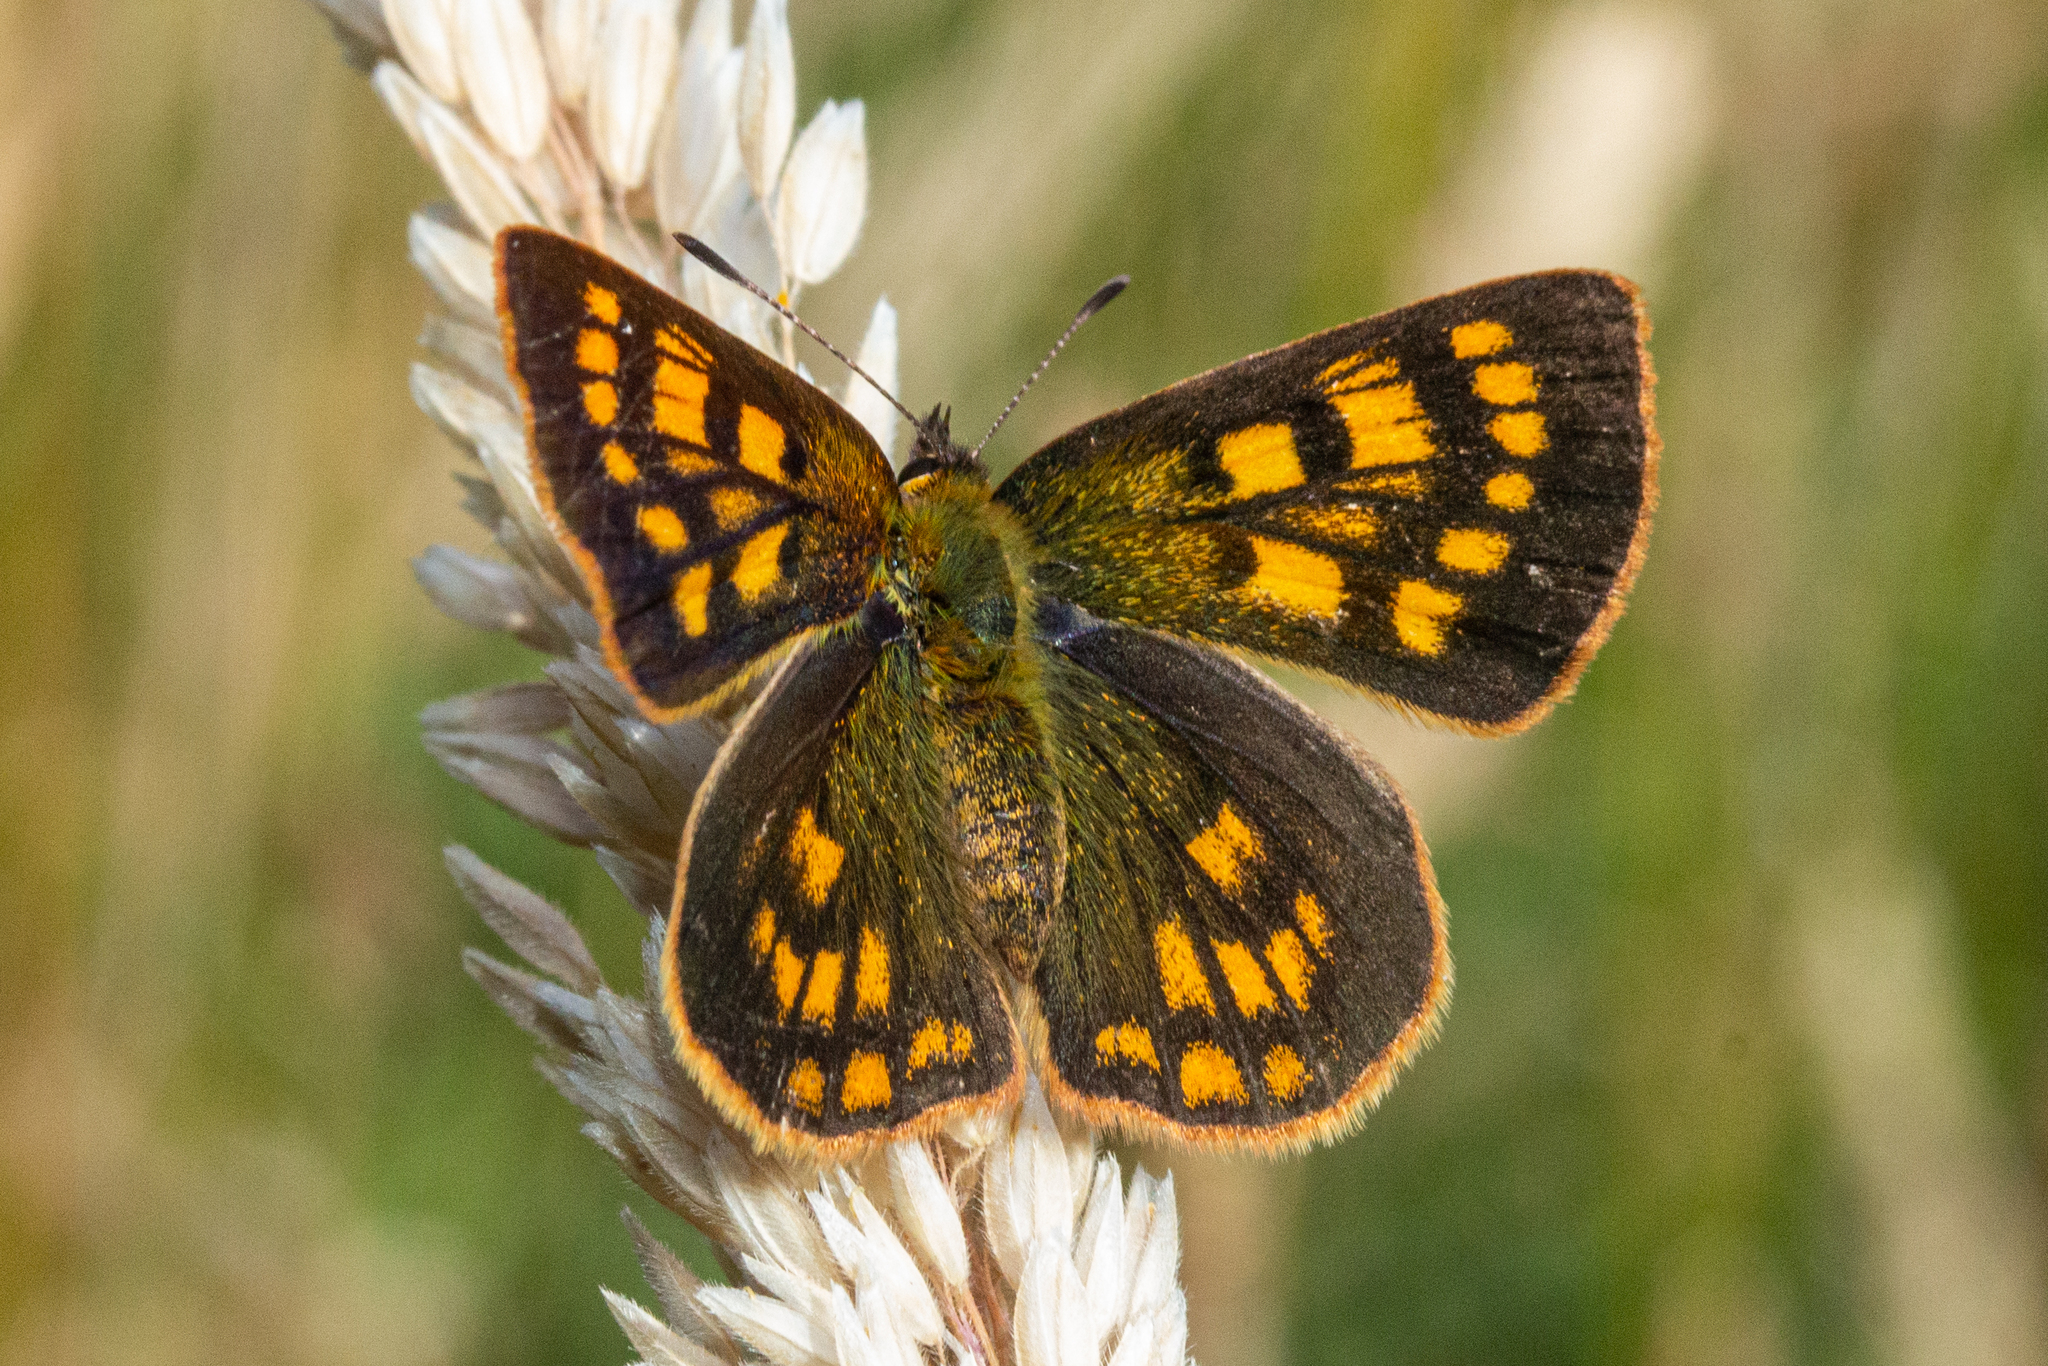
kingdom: Animalia
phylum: Arthropoda
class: Insecta
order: Lepidoptera
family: Lycaenidae
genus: Lycaena
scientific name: Lycaena feredayi
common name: Glade copper
